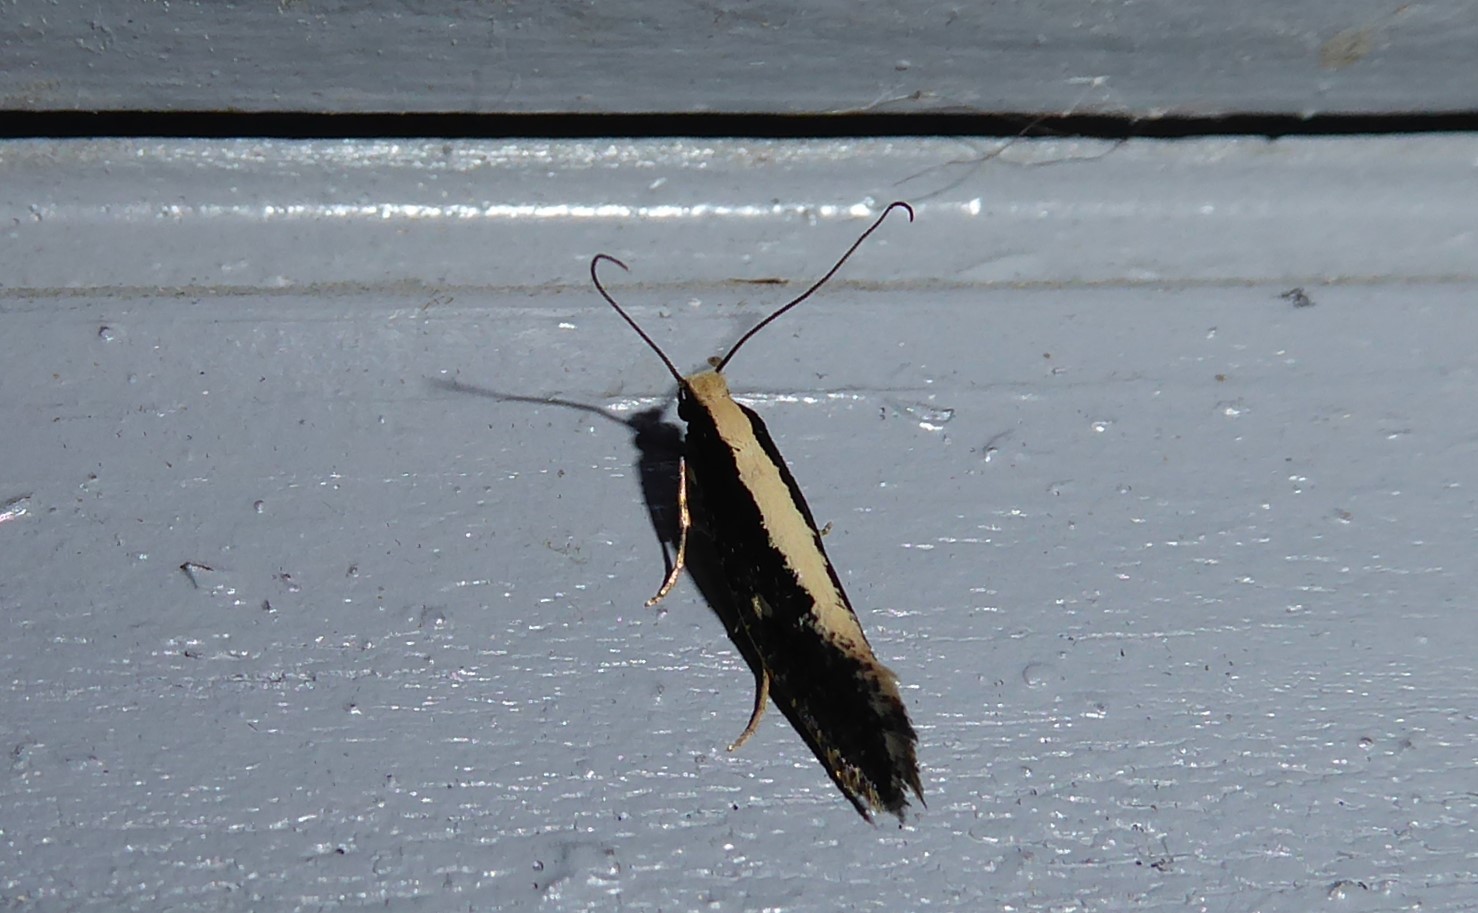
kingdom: Animalia
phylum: Arthropoda
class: Insecta
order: Lepidoptera
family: Tineidae
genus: Monopis
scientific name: Monopis ethelella
